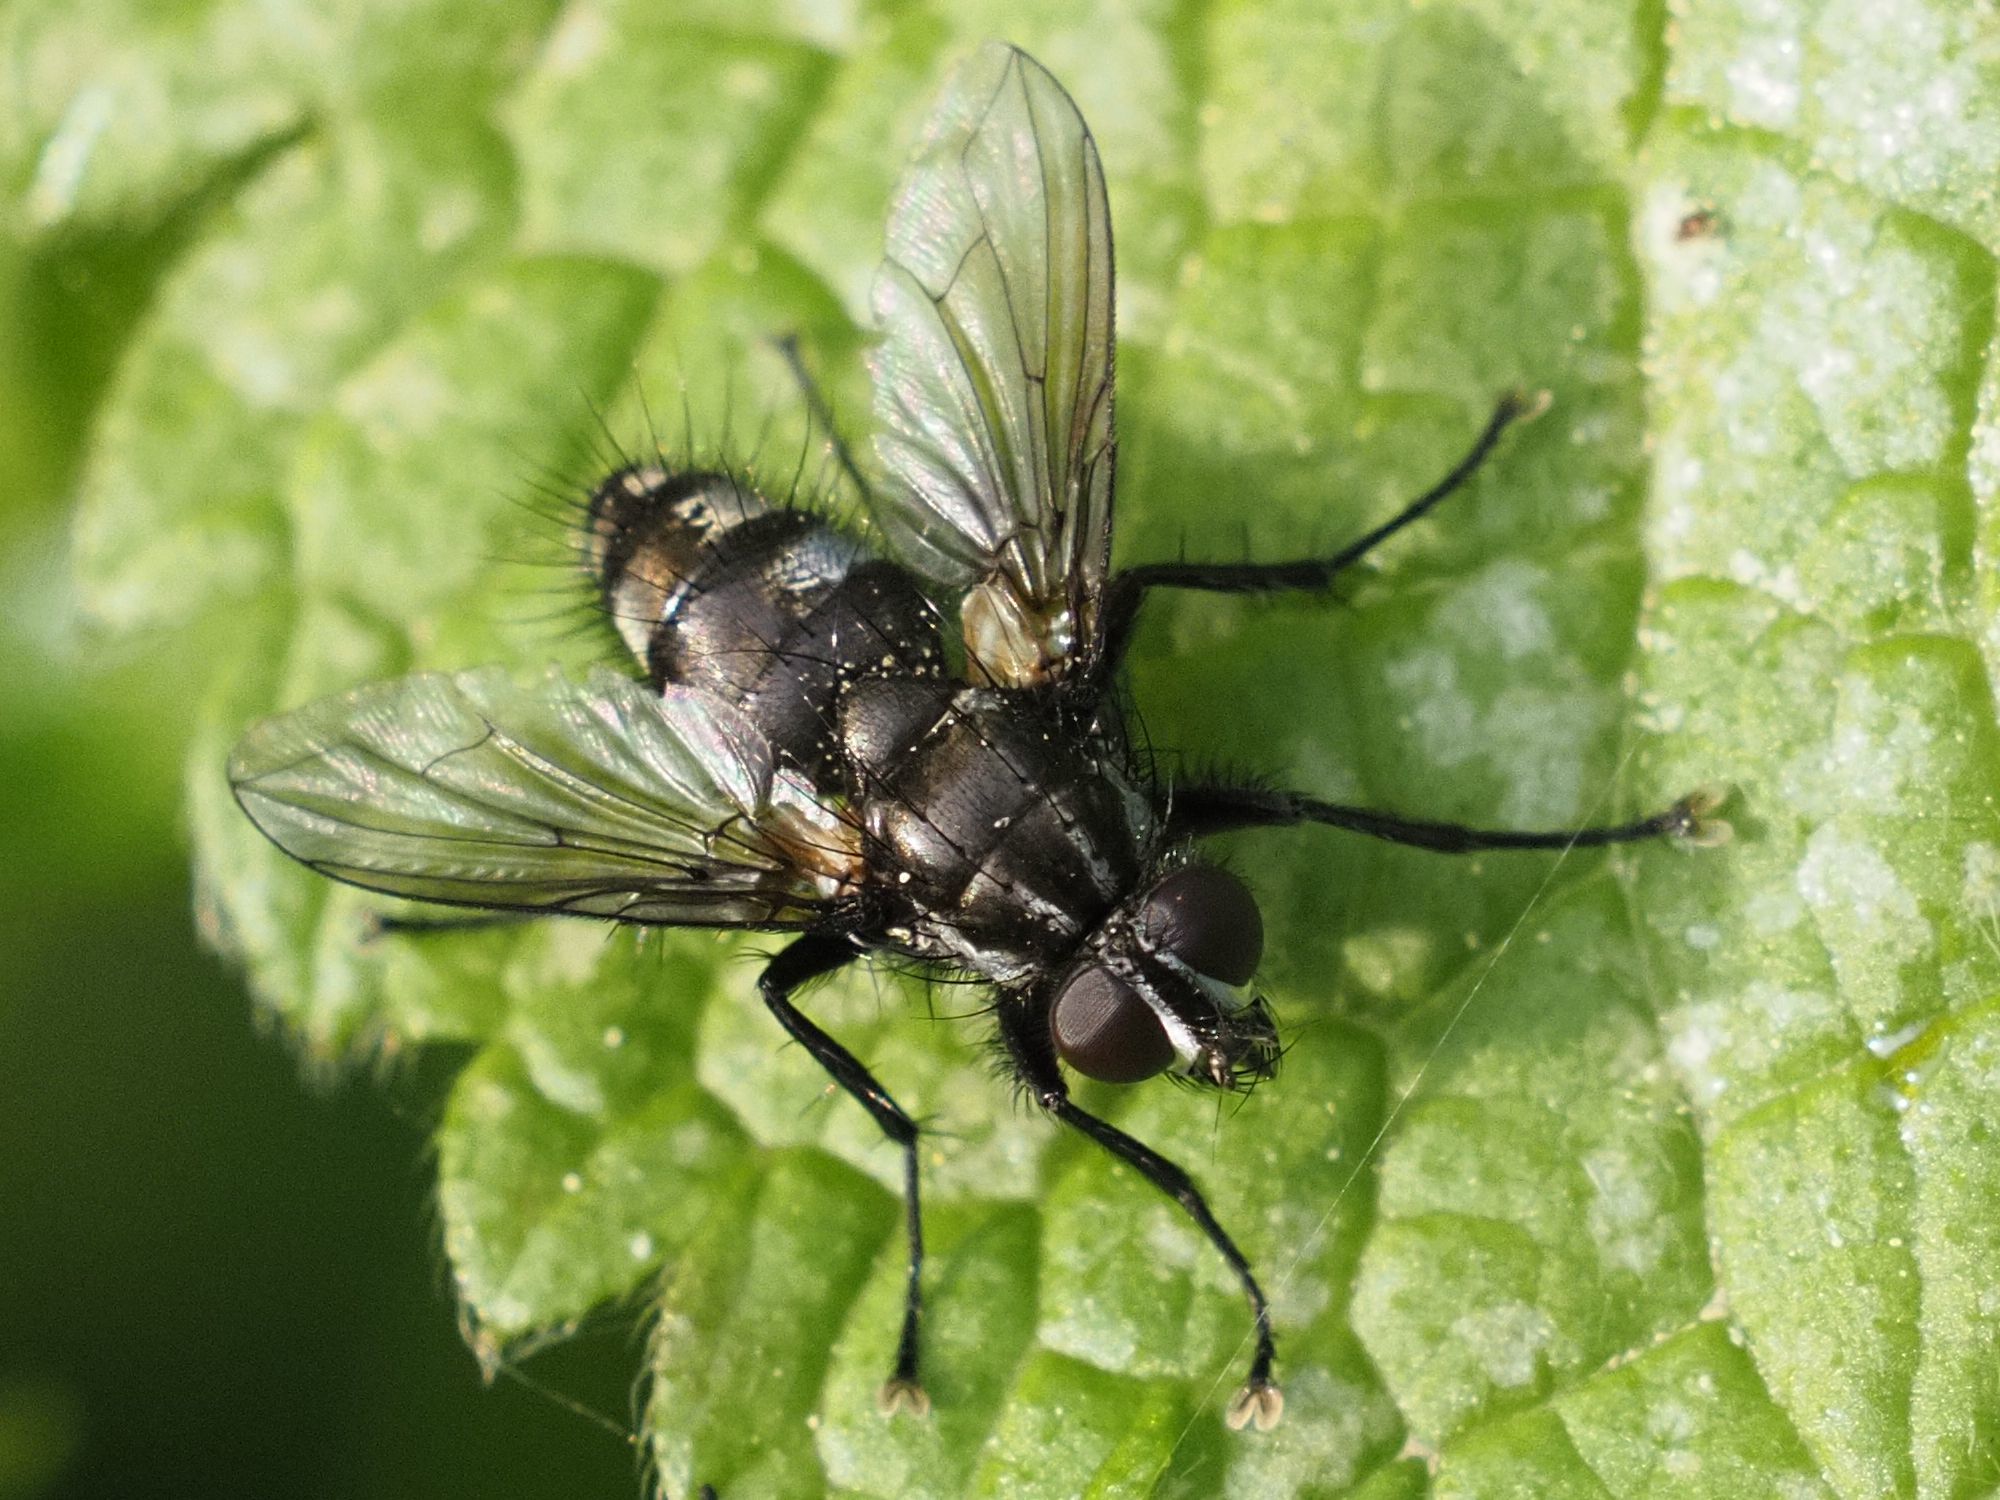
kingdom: Animalia
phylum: Arthropoda
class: Insecta
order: Diptera
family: Calliphoridae
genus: Rhinomorinia
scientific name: Rhinomorinia sarcophagina
